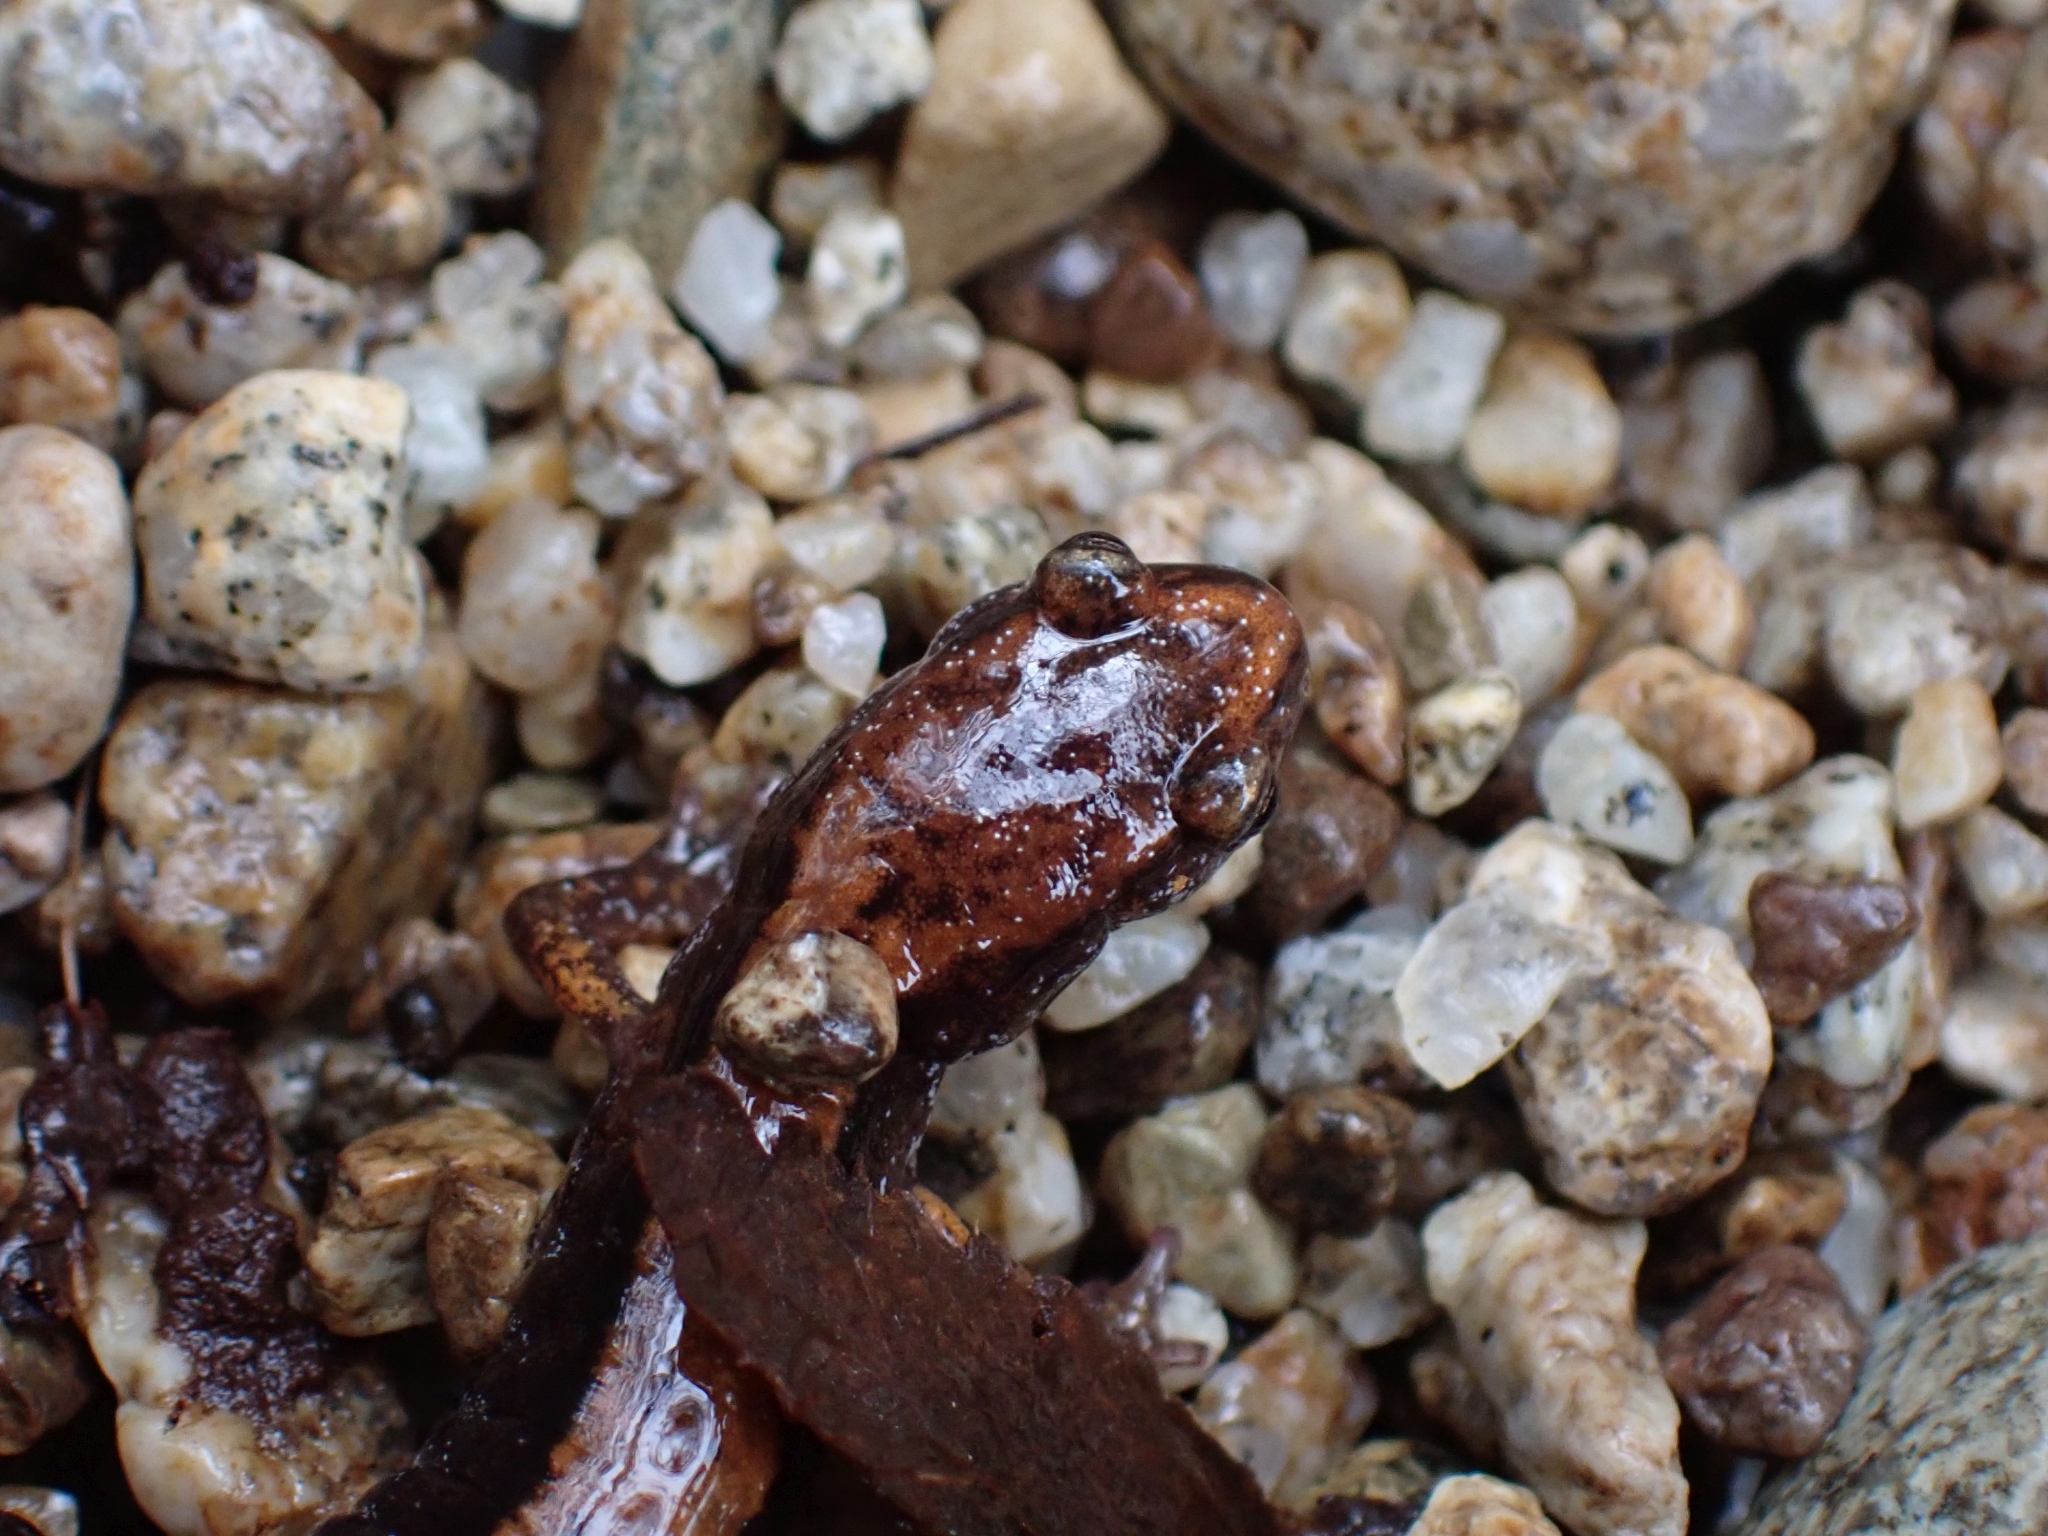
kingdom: Animalia
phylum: Chordata
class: Amphibia
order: Caudata
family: Plethodontidae
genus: Plethodon
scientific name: Plethodon vehiculum
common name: Western red-backed salamander
